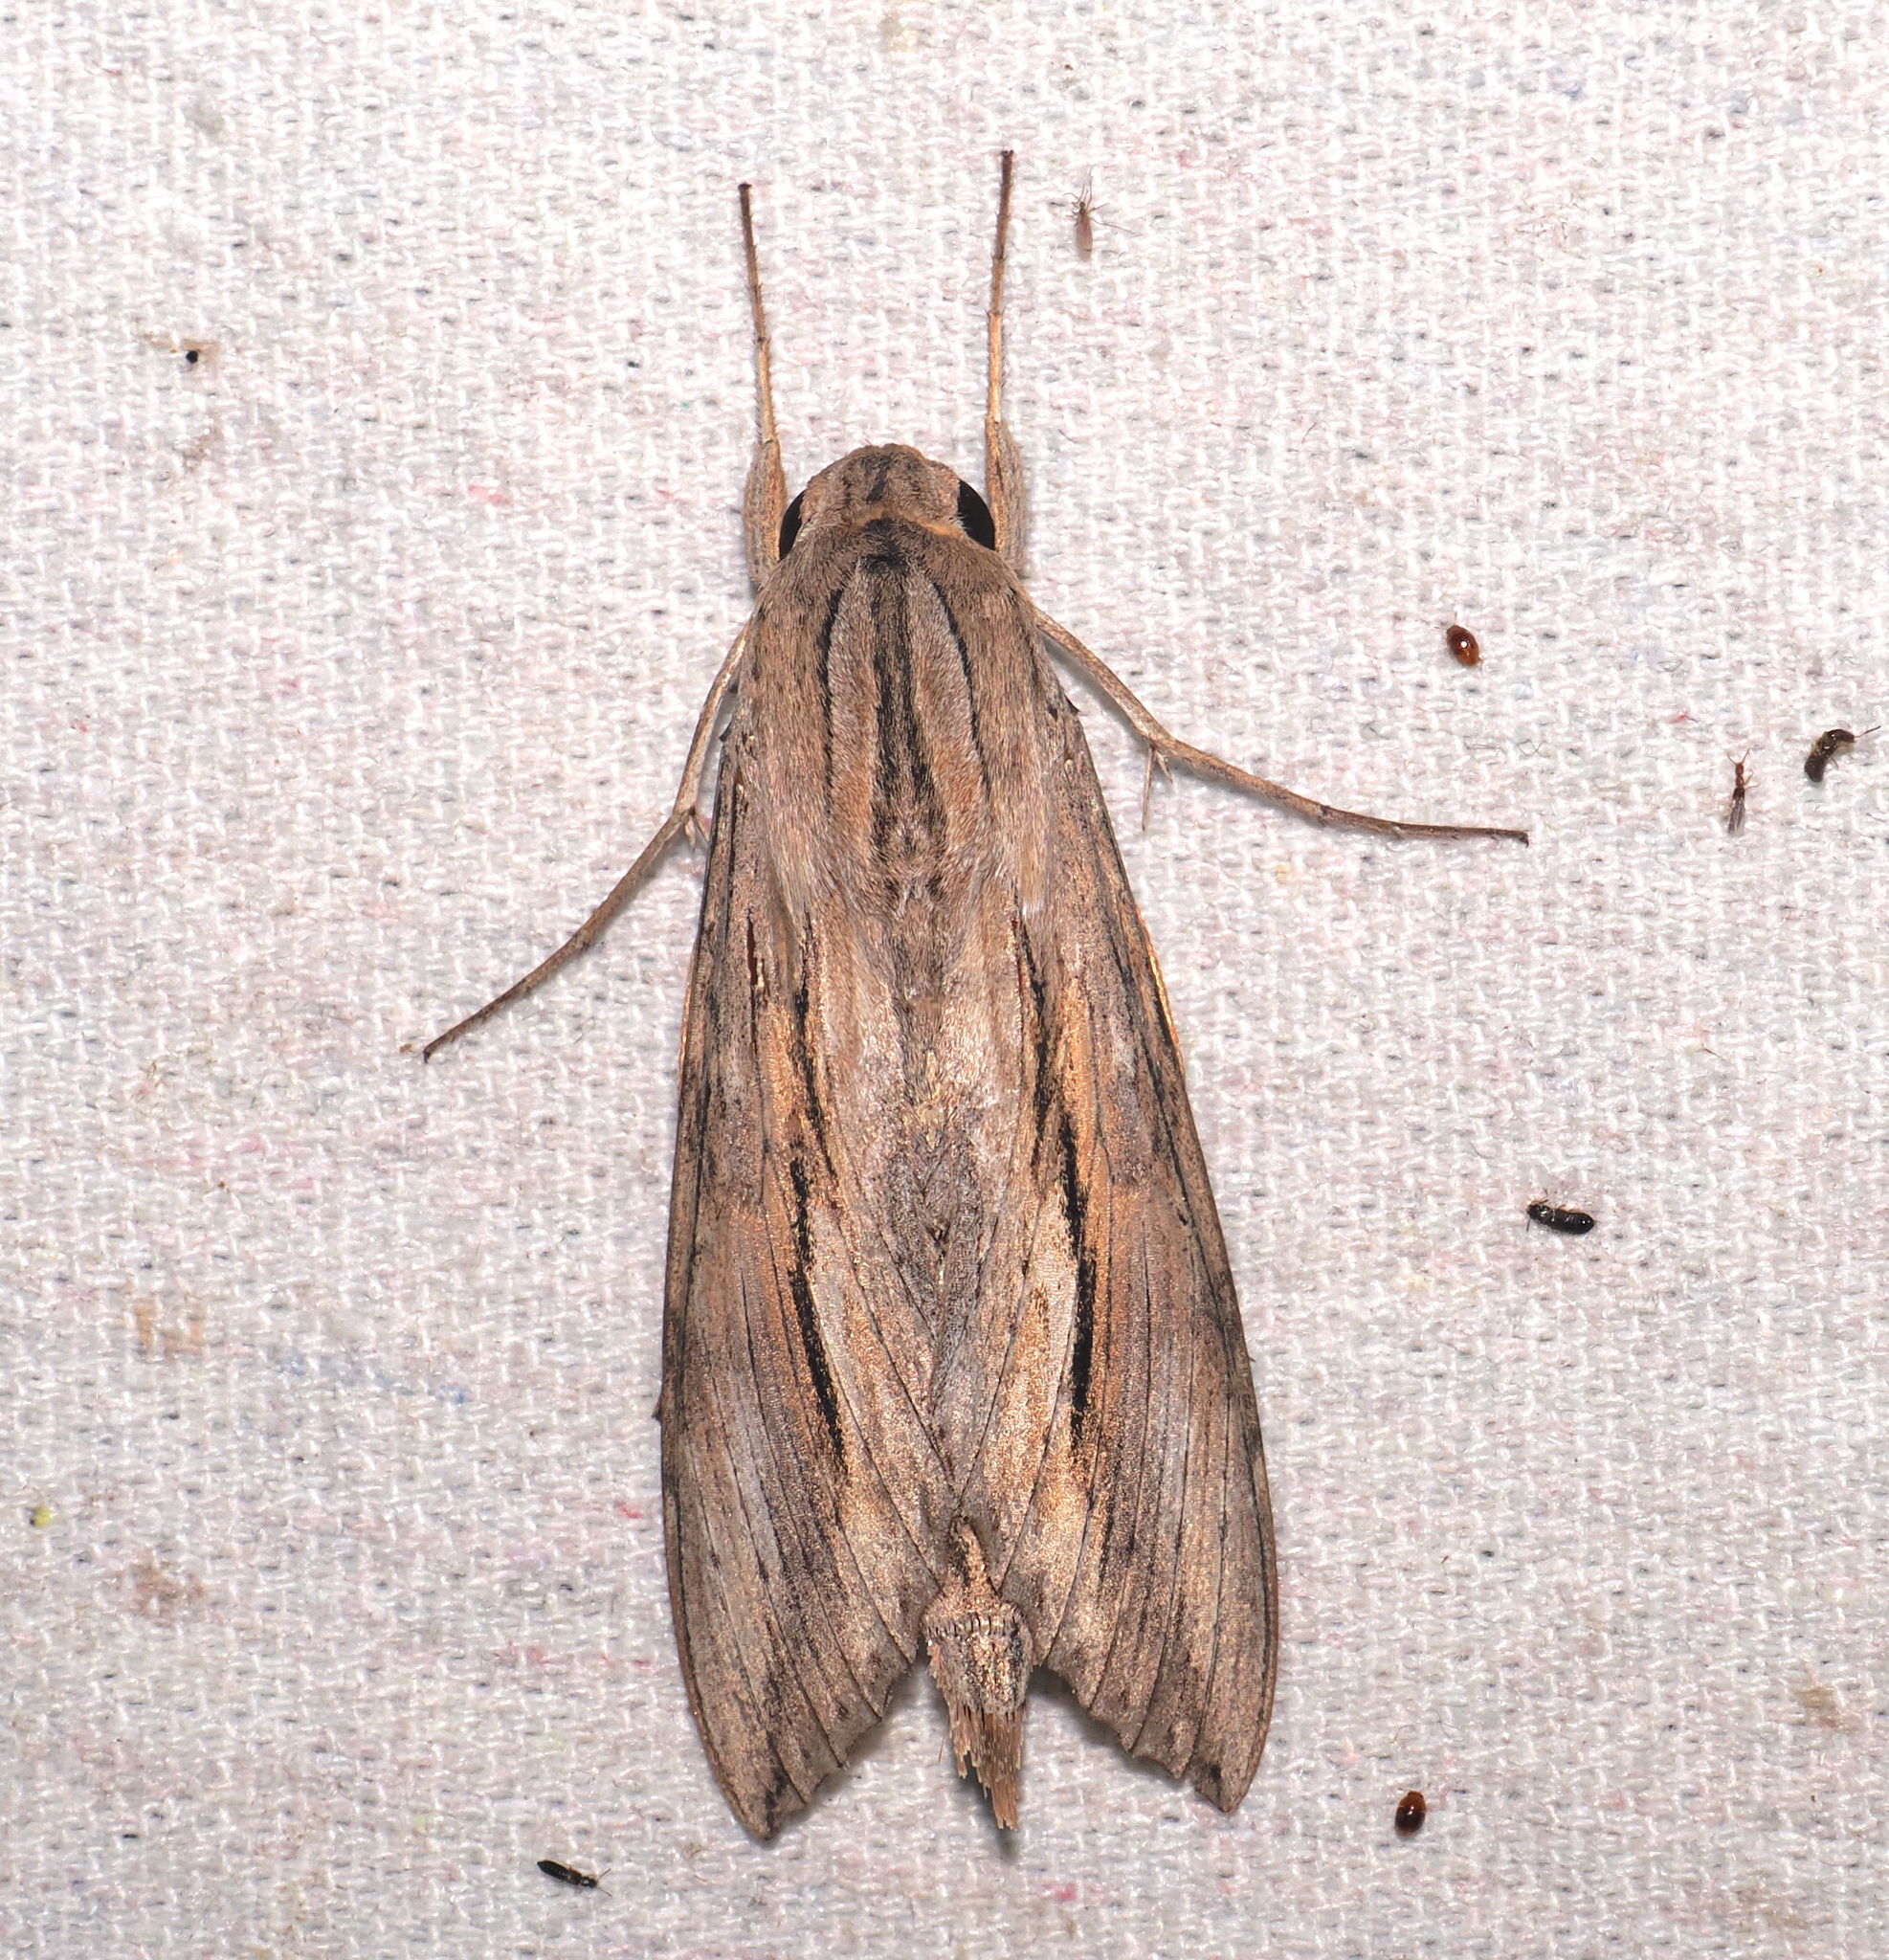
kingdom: Animalia
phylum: Arthropoda
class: Insecta
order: Lepidoptera
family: Sphingidae
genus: Erinnyis
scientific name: Erinnyis ello
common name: Ello sphinx
